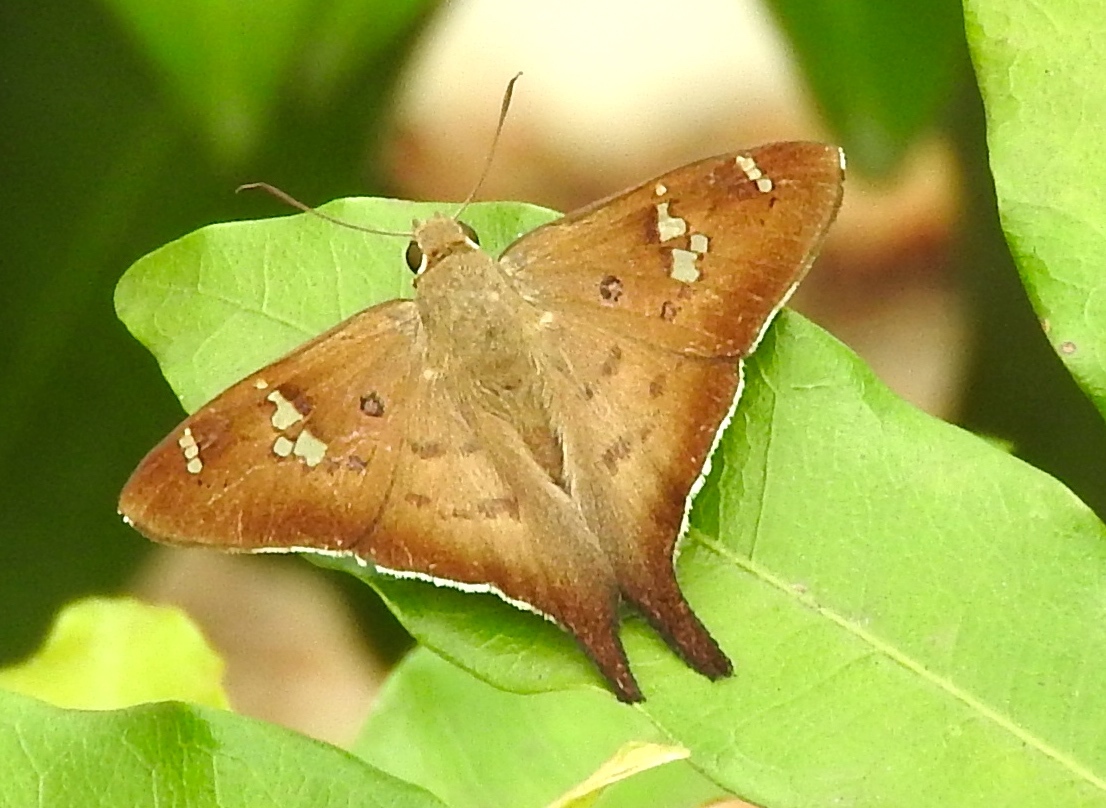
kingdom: Animalia
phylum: Arthropoda
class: Insecta
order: Lepidoptera
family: Hesperiidae
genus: Ectomis
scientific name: Ectomis
